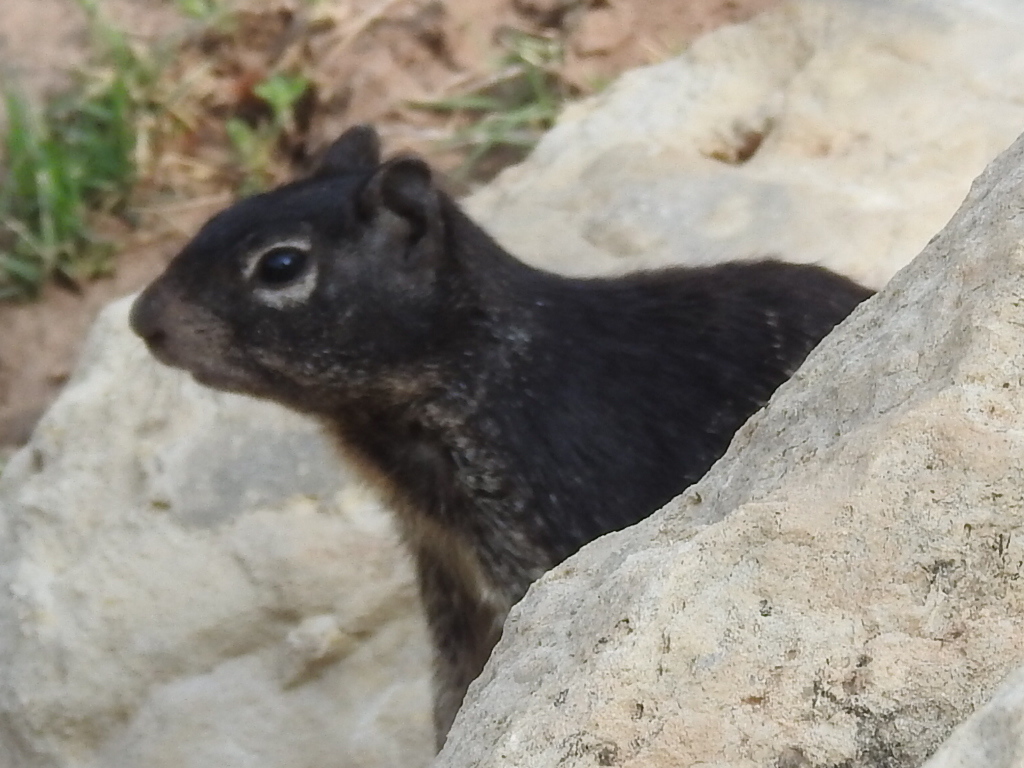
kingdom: Animalia
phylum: Chordata
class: Mammalia
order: Rodentia
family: Sciuridae
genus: Otospermophilus
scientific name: Otospermophilus variegatus
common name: Rock squirrel
